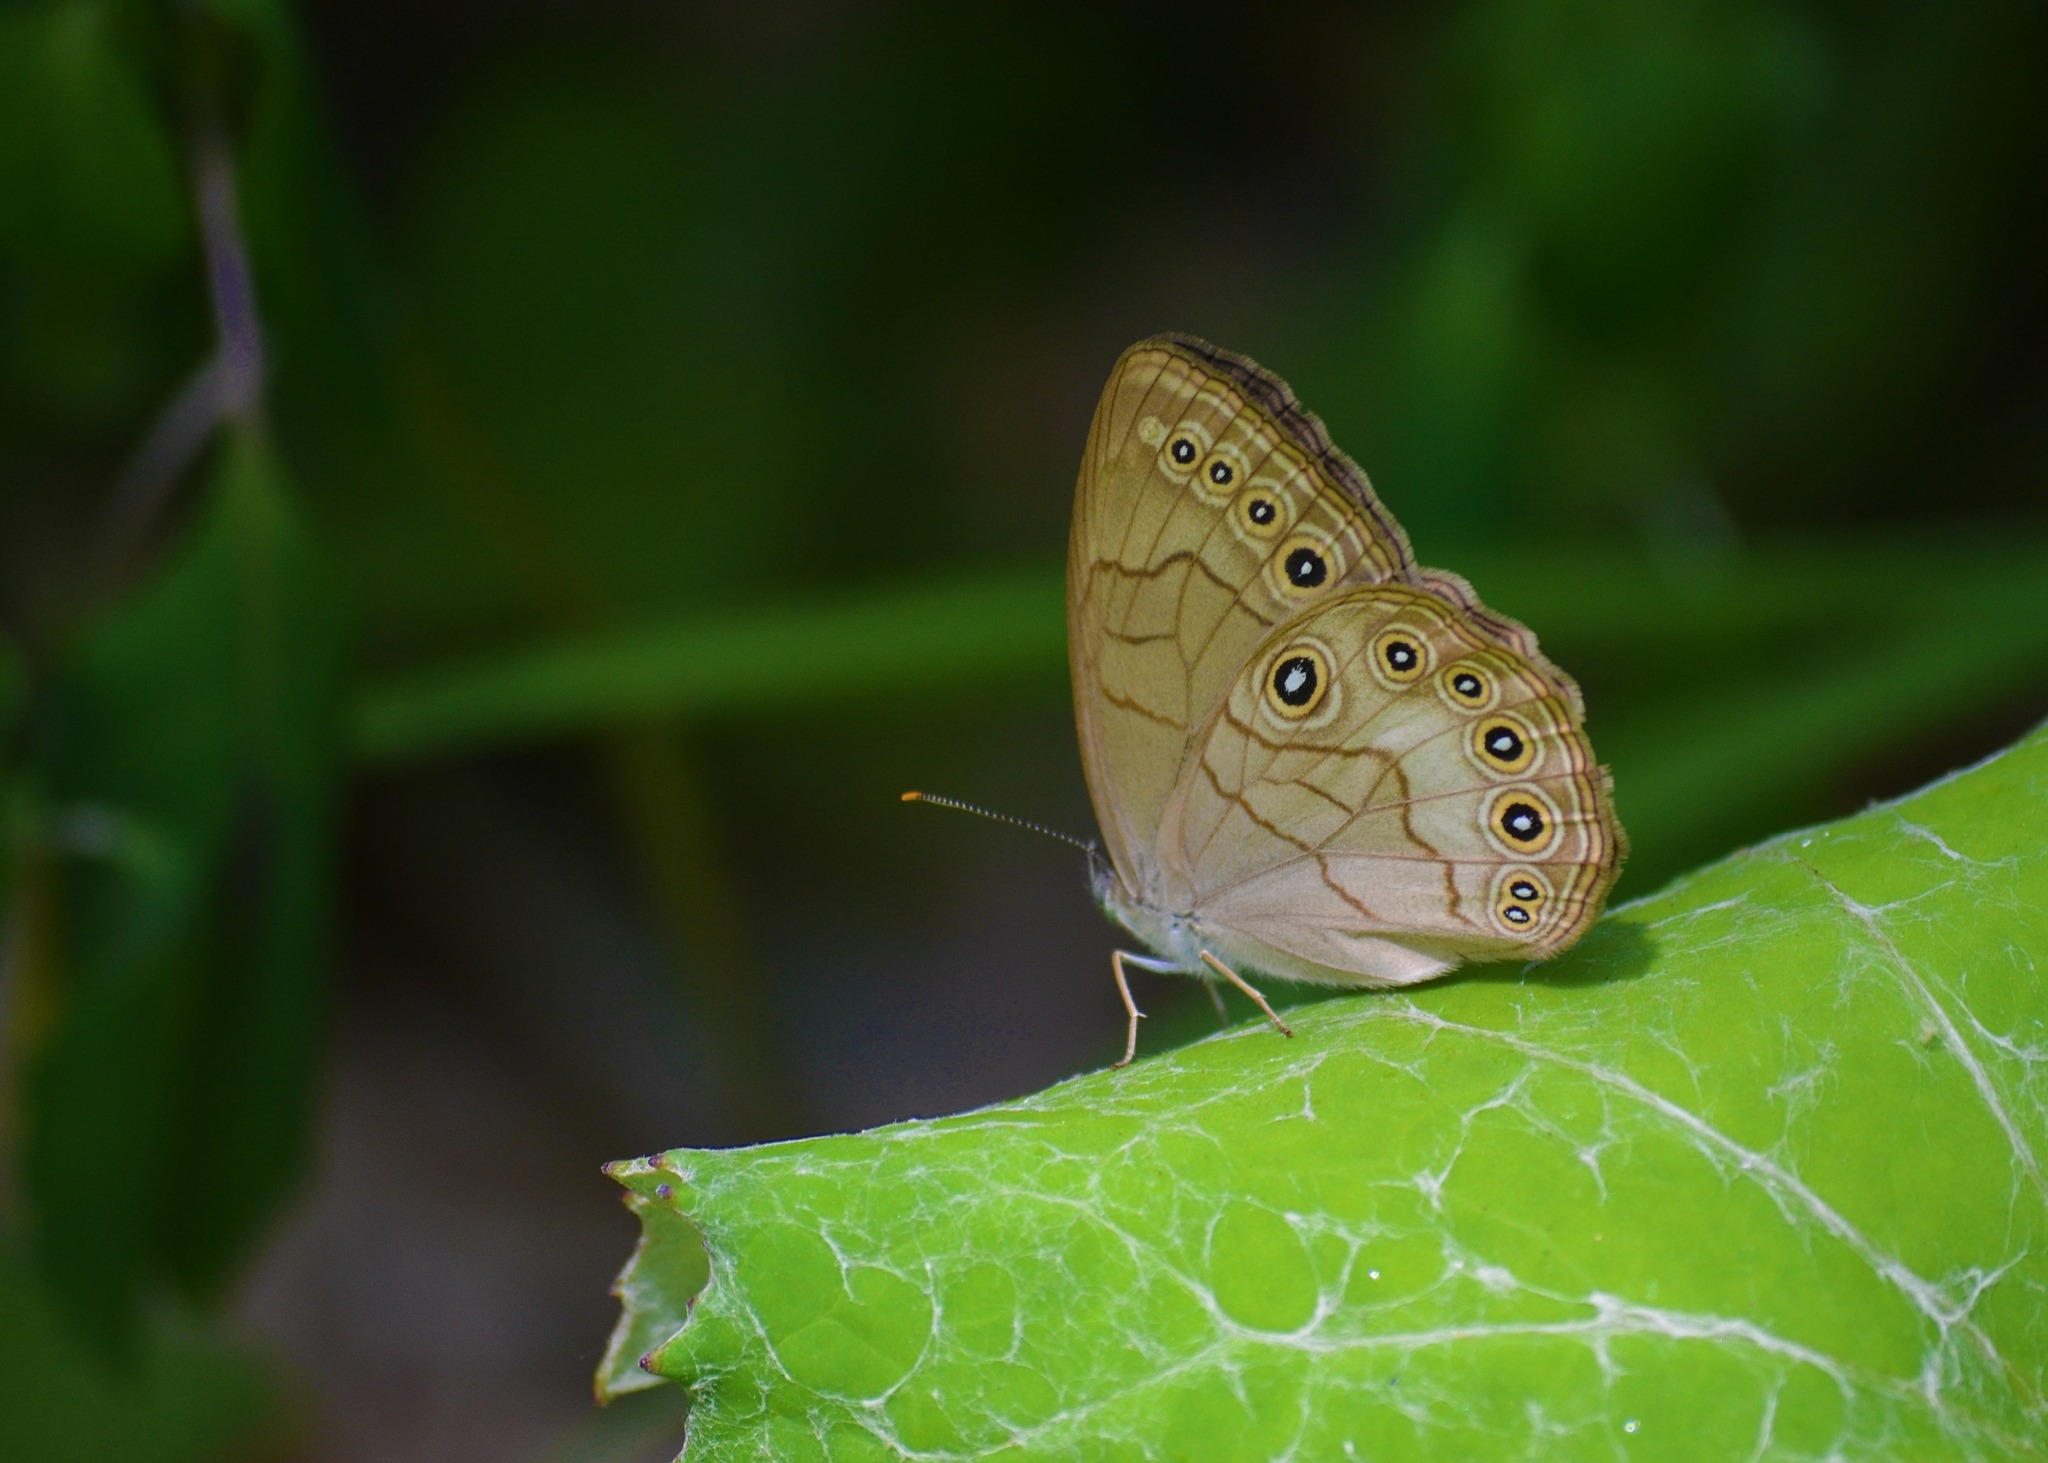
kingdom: Animalia
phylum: Arthropoda
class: Insecta
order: Lepidoptera
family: Nymphalidae
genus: Lethe
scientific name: Lethe eurydice
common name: Eyed brown
